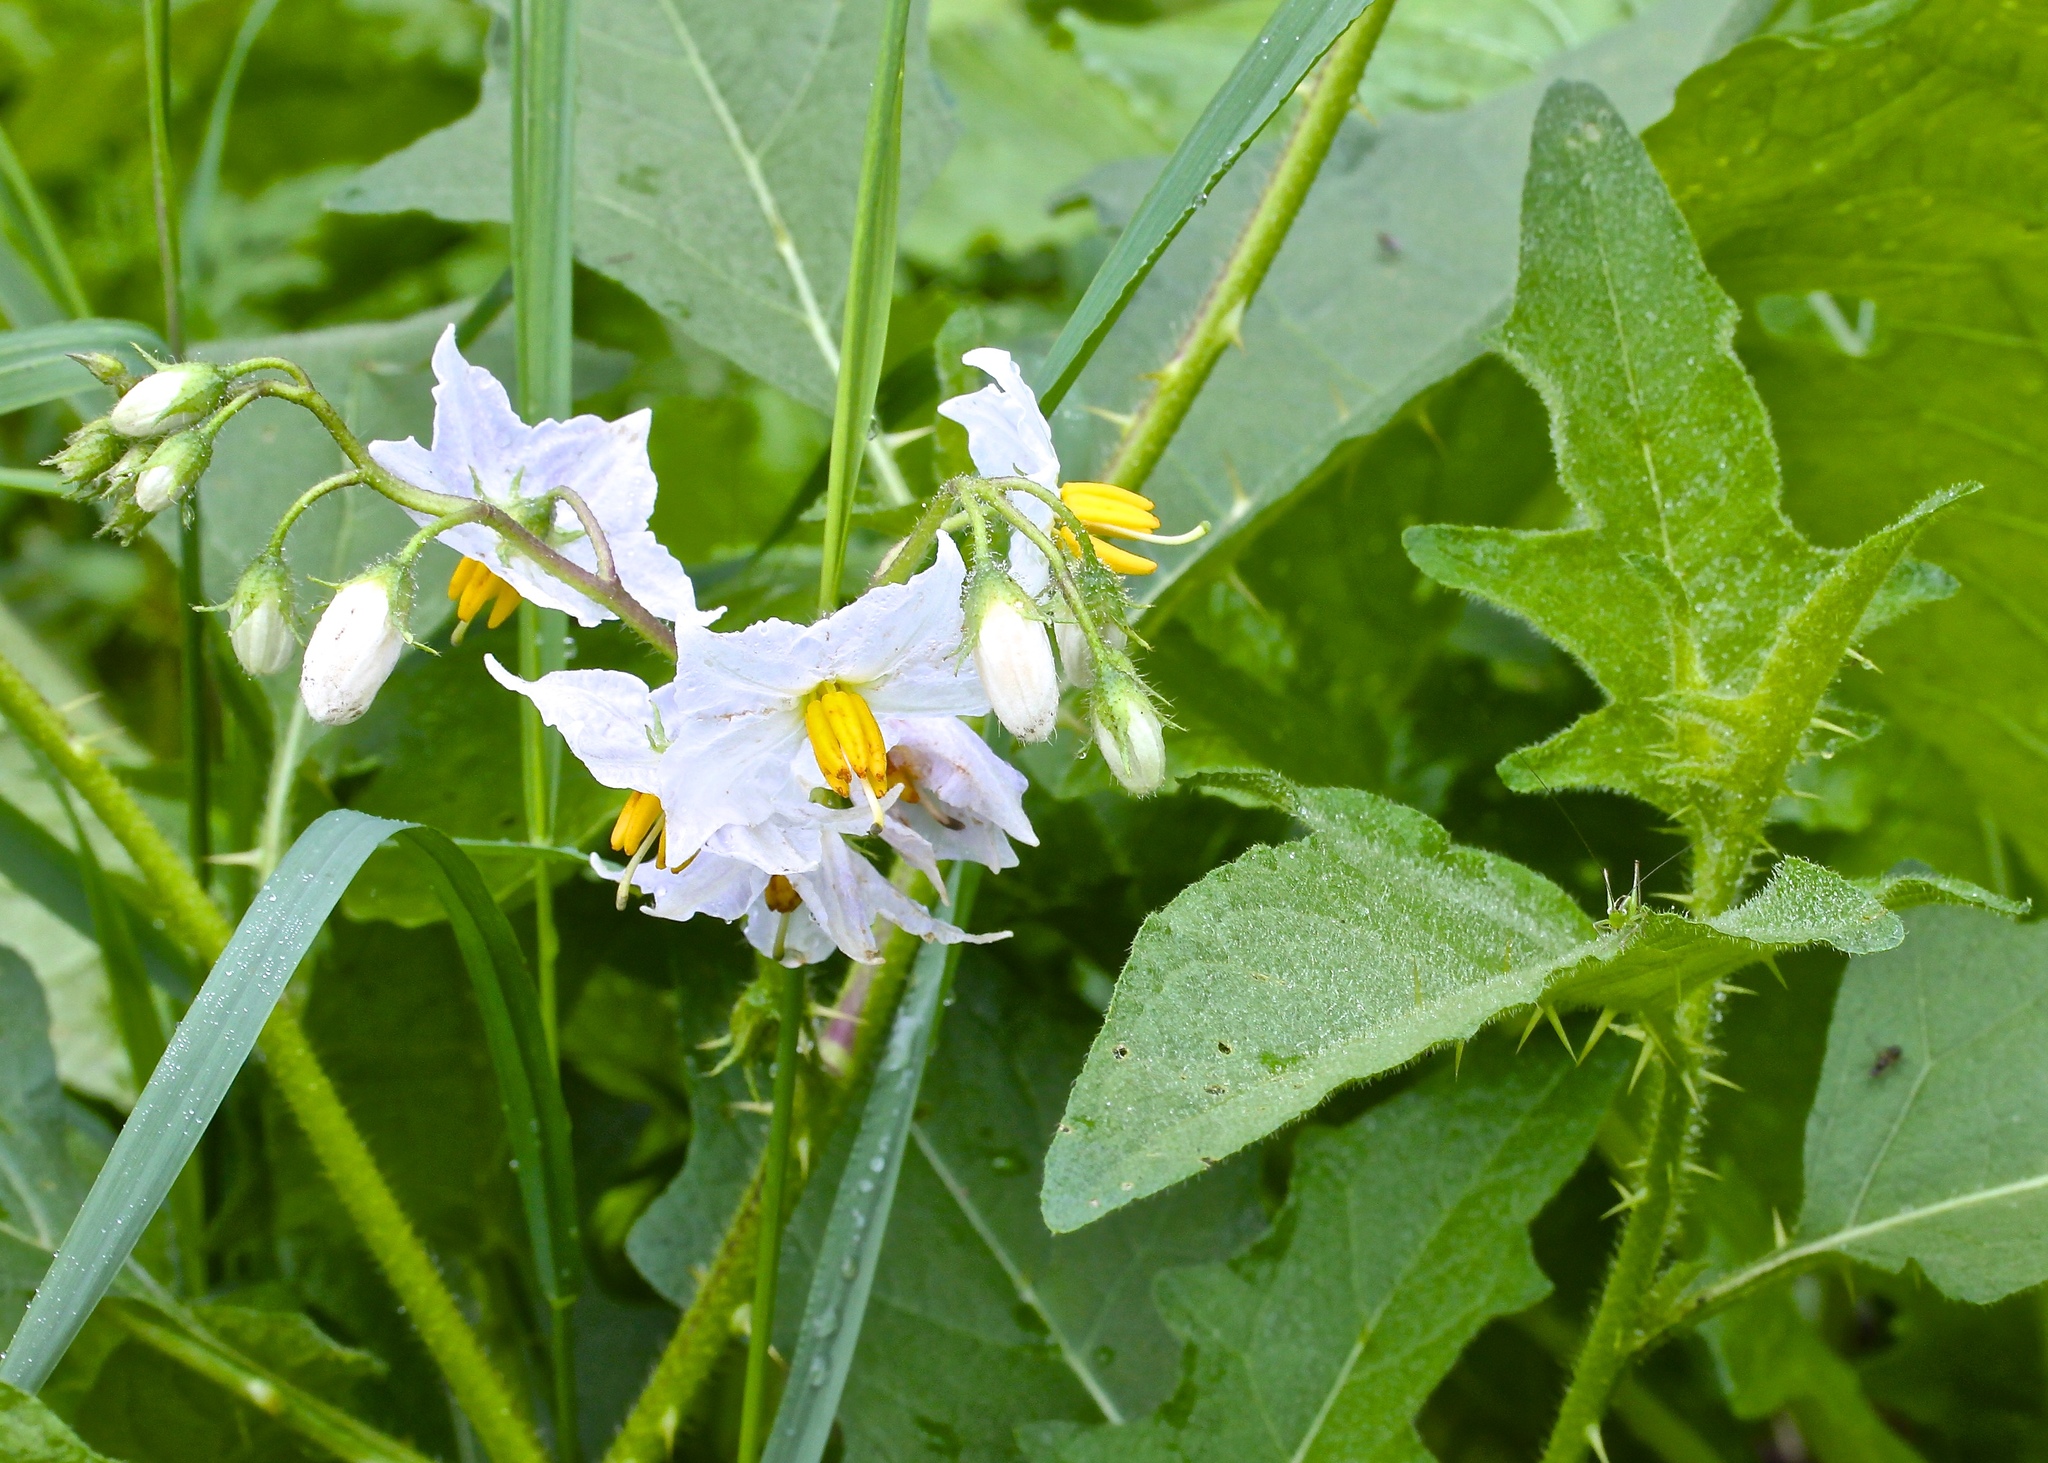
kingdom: Plantae
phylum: Tracheophyta
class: Magnoliopsida
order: Solanales
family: Solanaceae
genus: Solanum
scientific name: Solanum carolinense
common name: Horse-nettle
